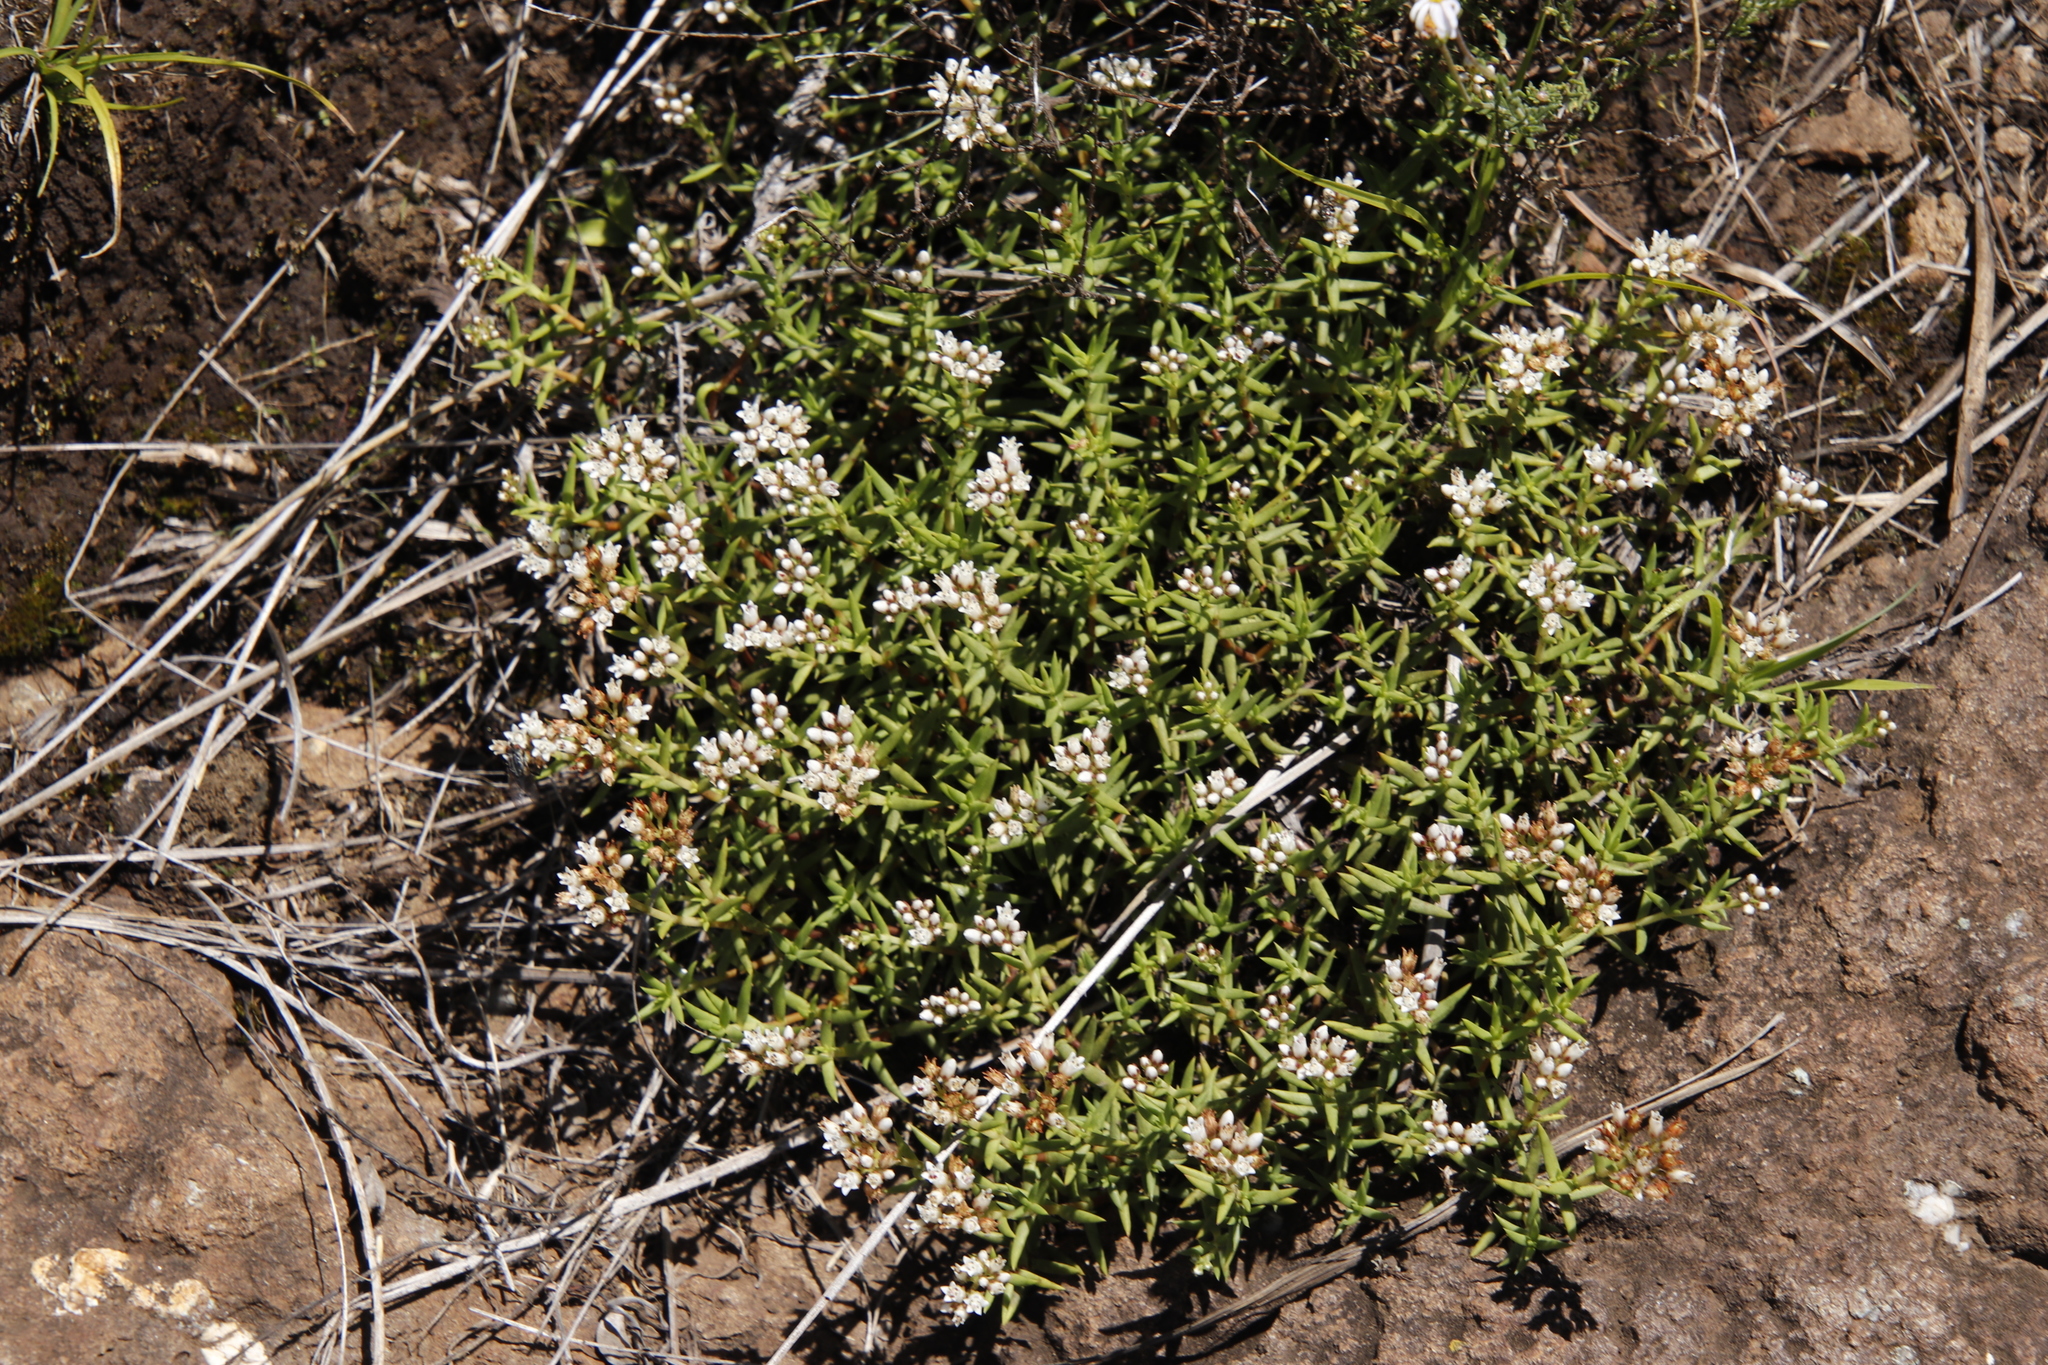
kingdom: Plantae
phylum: Tracheophyta
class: Magnoliopsida
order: Saxifragales
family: Crassulaceae
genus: Crassula
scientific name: Crassula dependens
